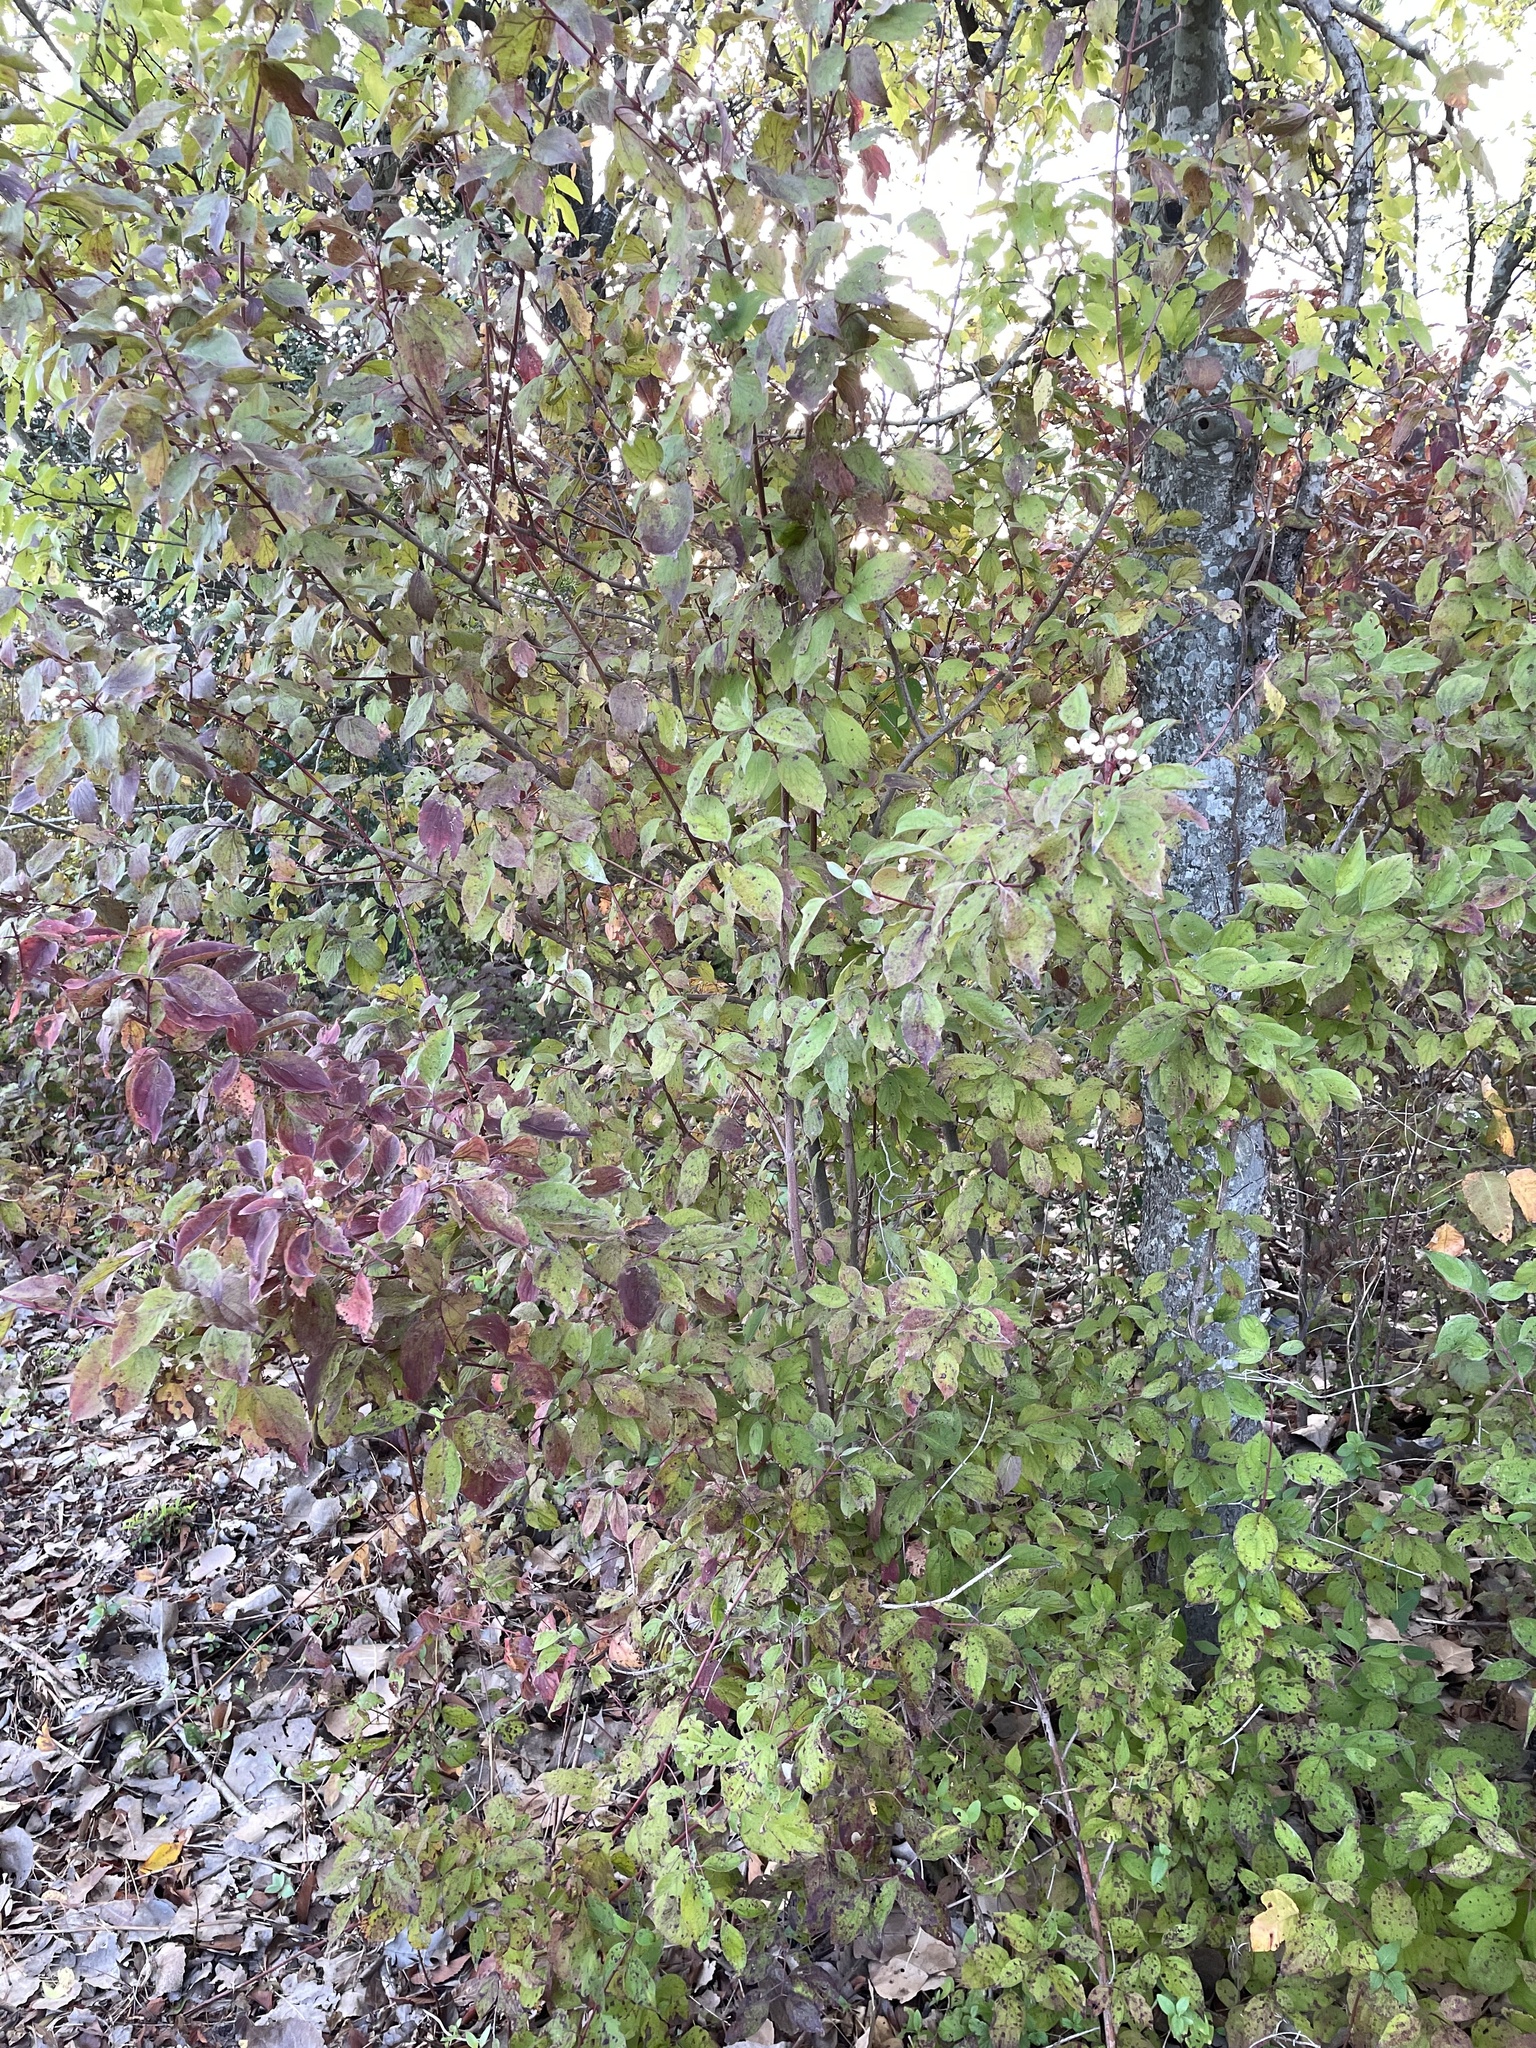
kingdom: Plantae
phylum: Tracheophyta
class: Magnoliopsida
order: Cornales
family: Cornaceae
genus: Cornus
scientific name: Cornus drummondii
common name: Rough-leaf dogwood
